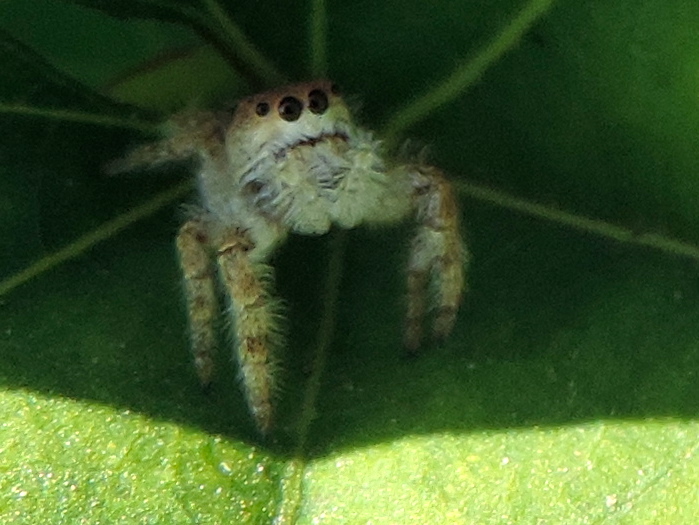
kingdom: Animalia
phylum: Arthropoda
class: Arachnida
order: Araneae
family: Salticidae
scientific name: Salticidae
